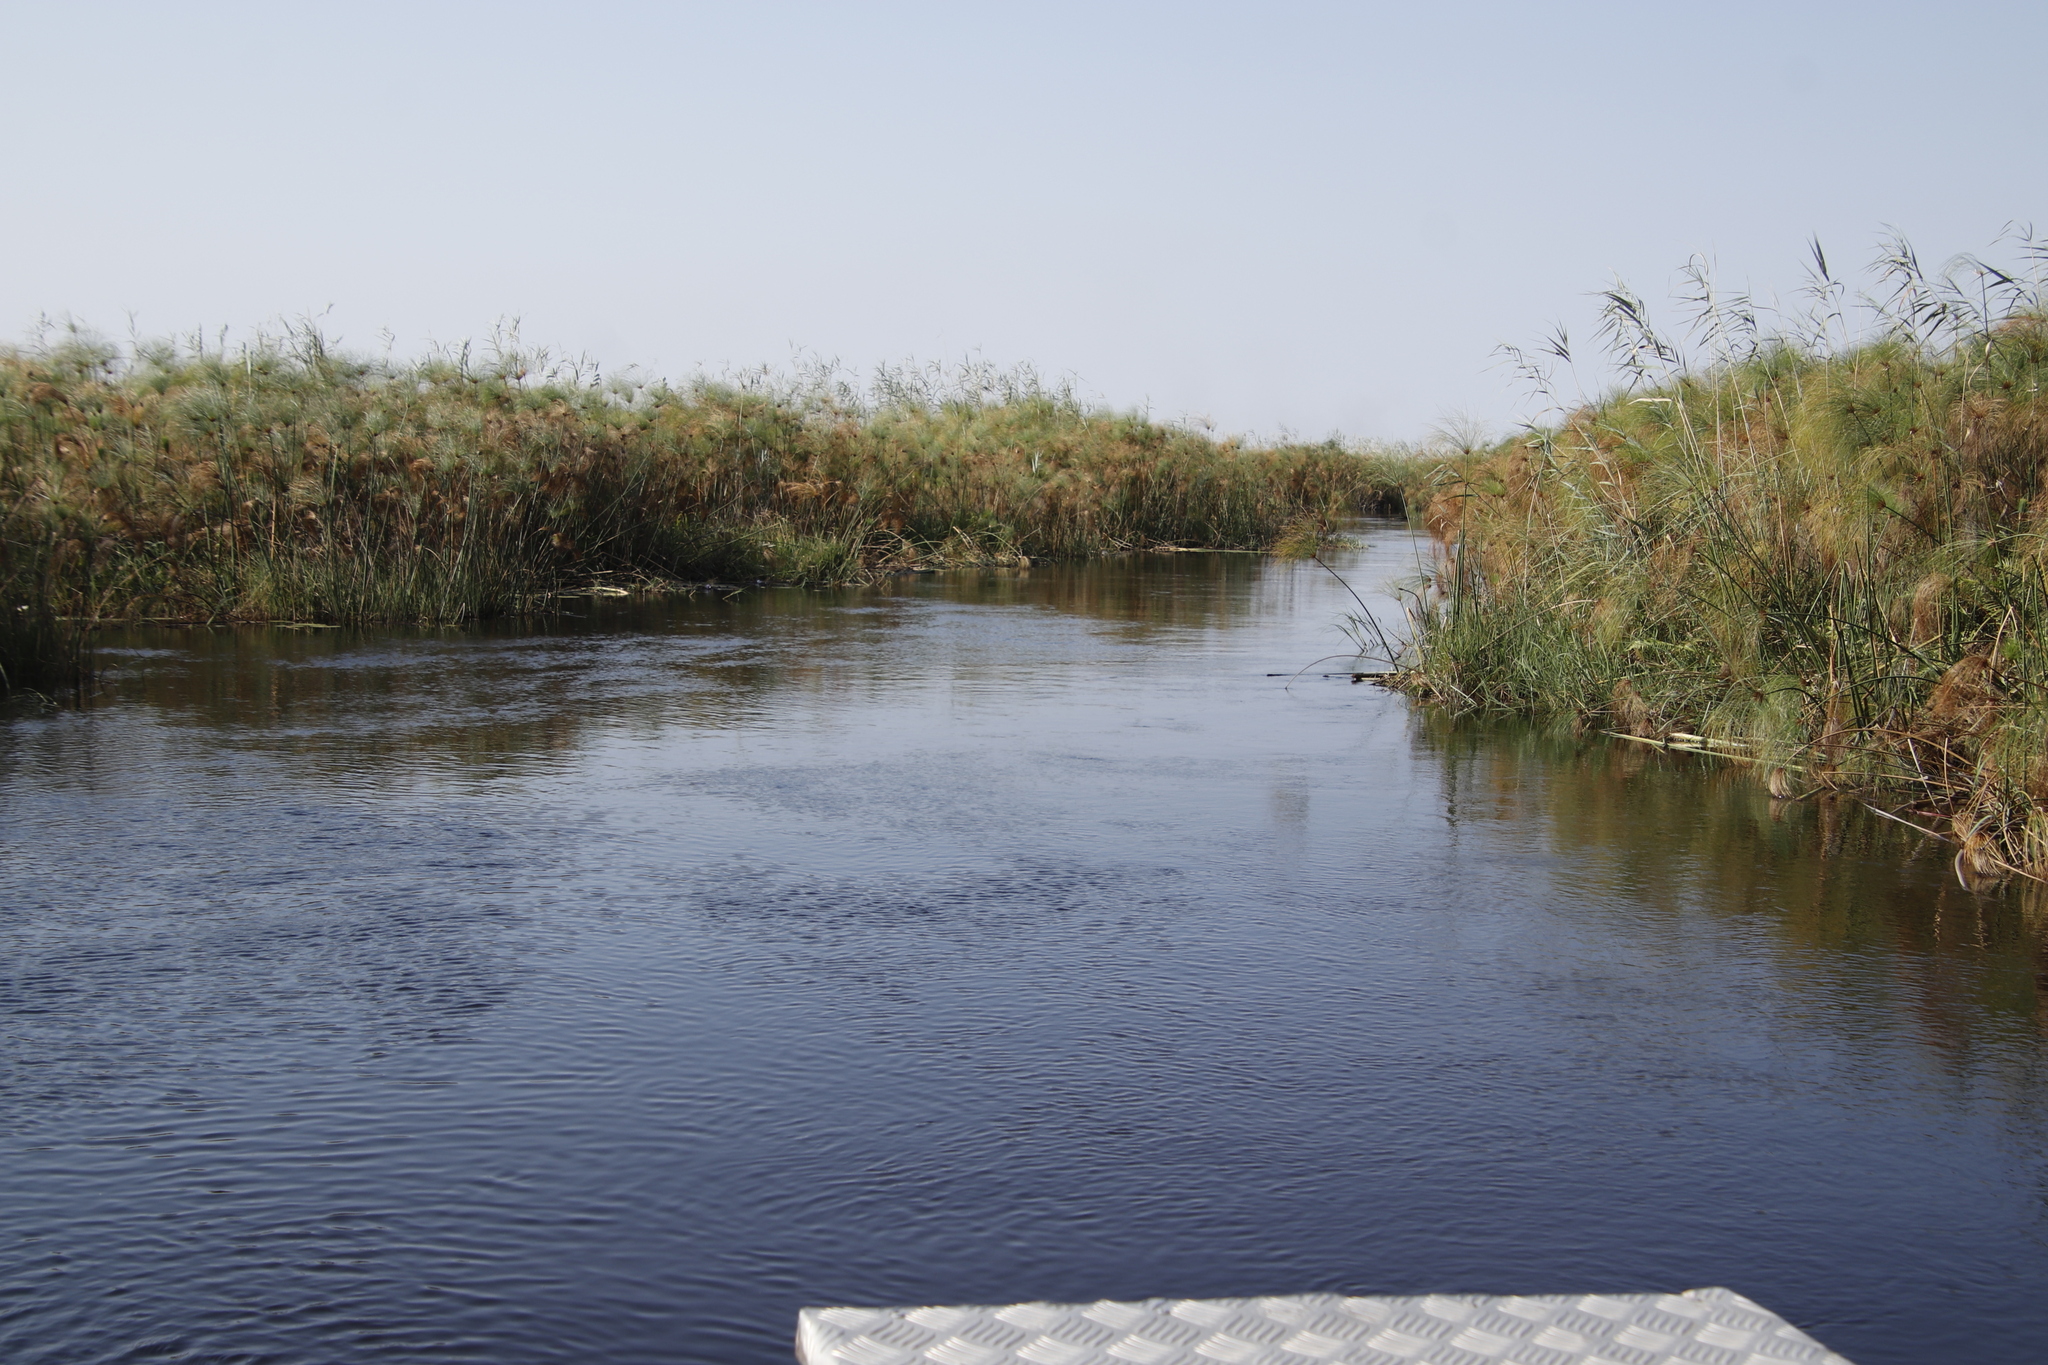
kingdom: Plantae
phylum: Tracheophyta
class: Liliopsida
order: Poales
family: Poaceae
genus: Phragmites
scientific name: Phragmites australis
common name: Common reed
